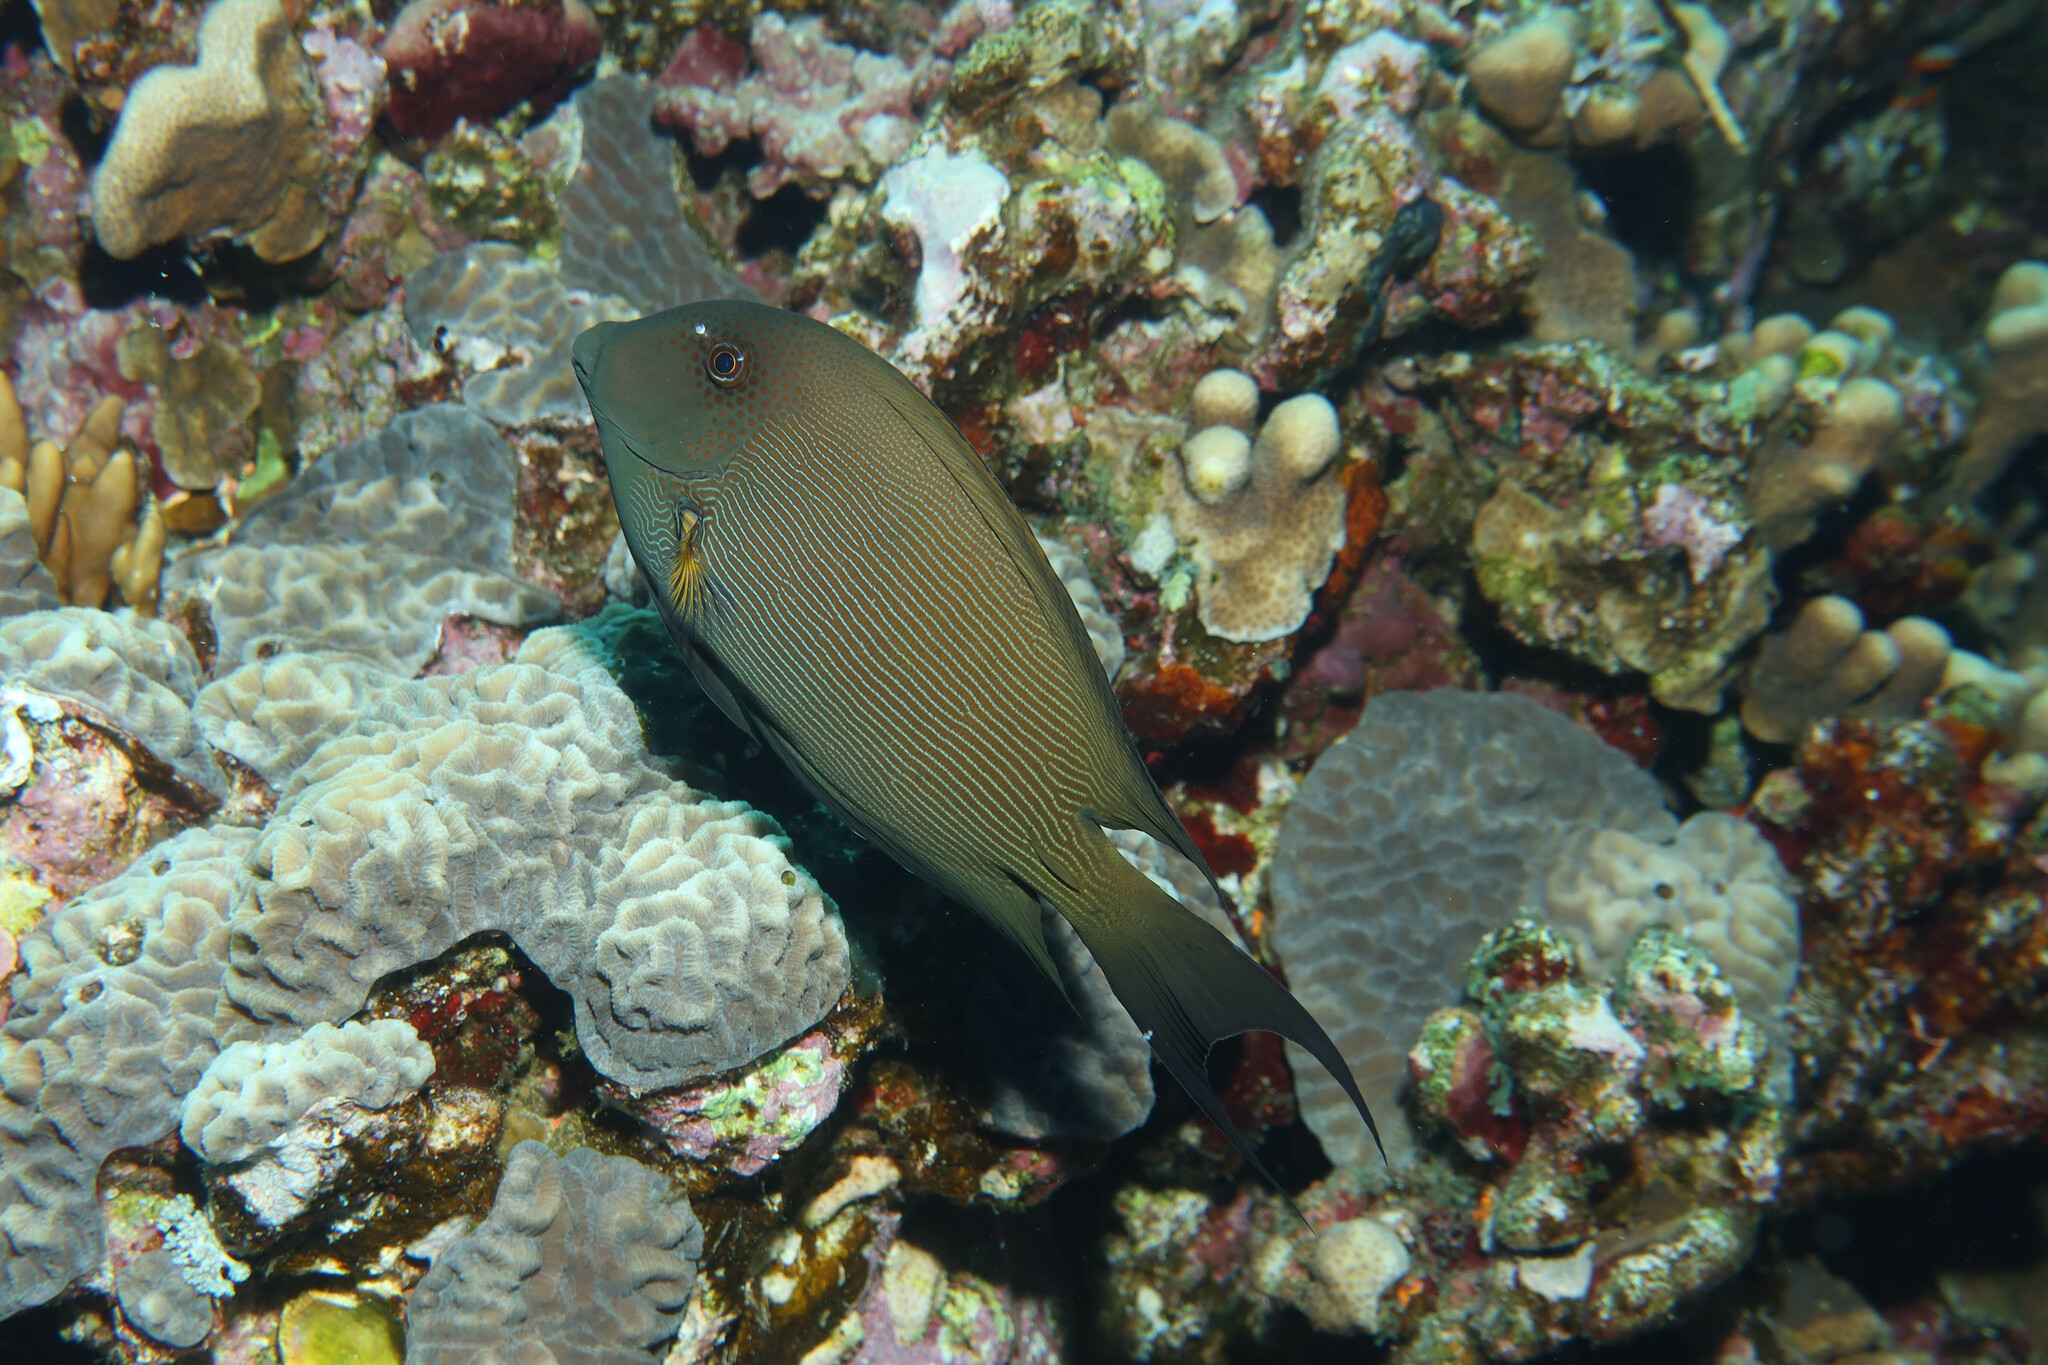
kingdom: Animalia
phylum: Chordata
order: Perciformes
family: Acanthuridae
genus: Ctenochaetus
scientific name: Ctenochaetus striatus
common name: Bristle-toothed surgeonfish
